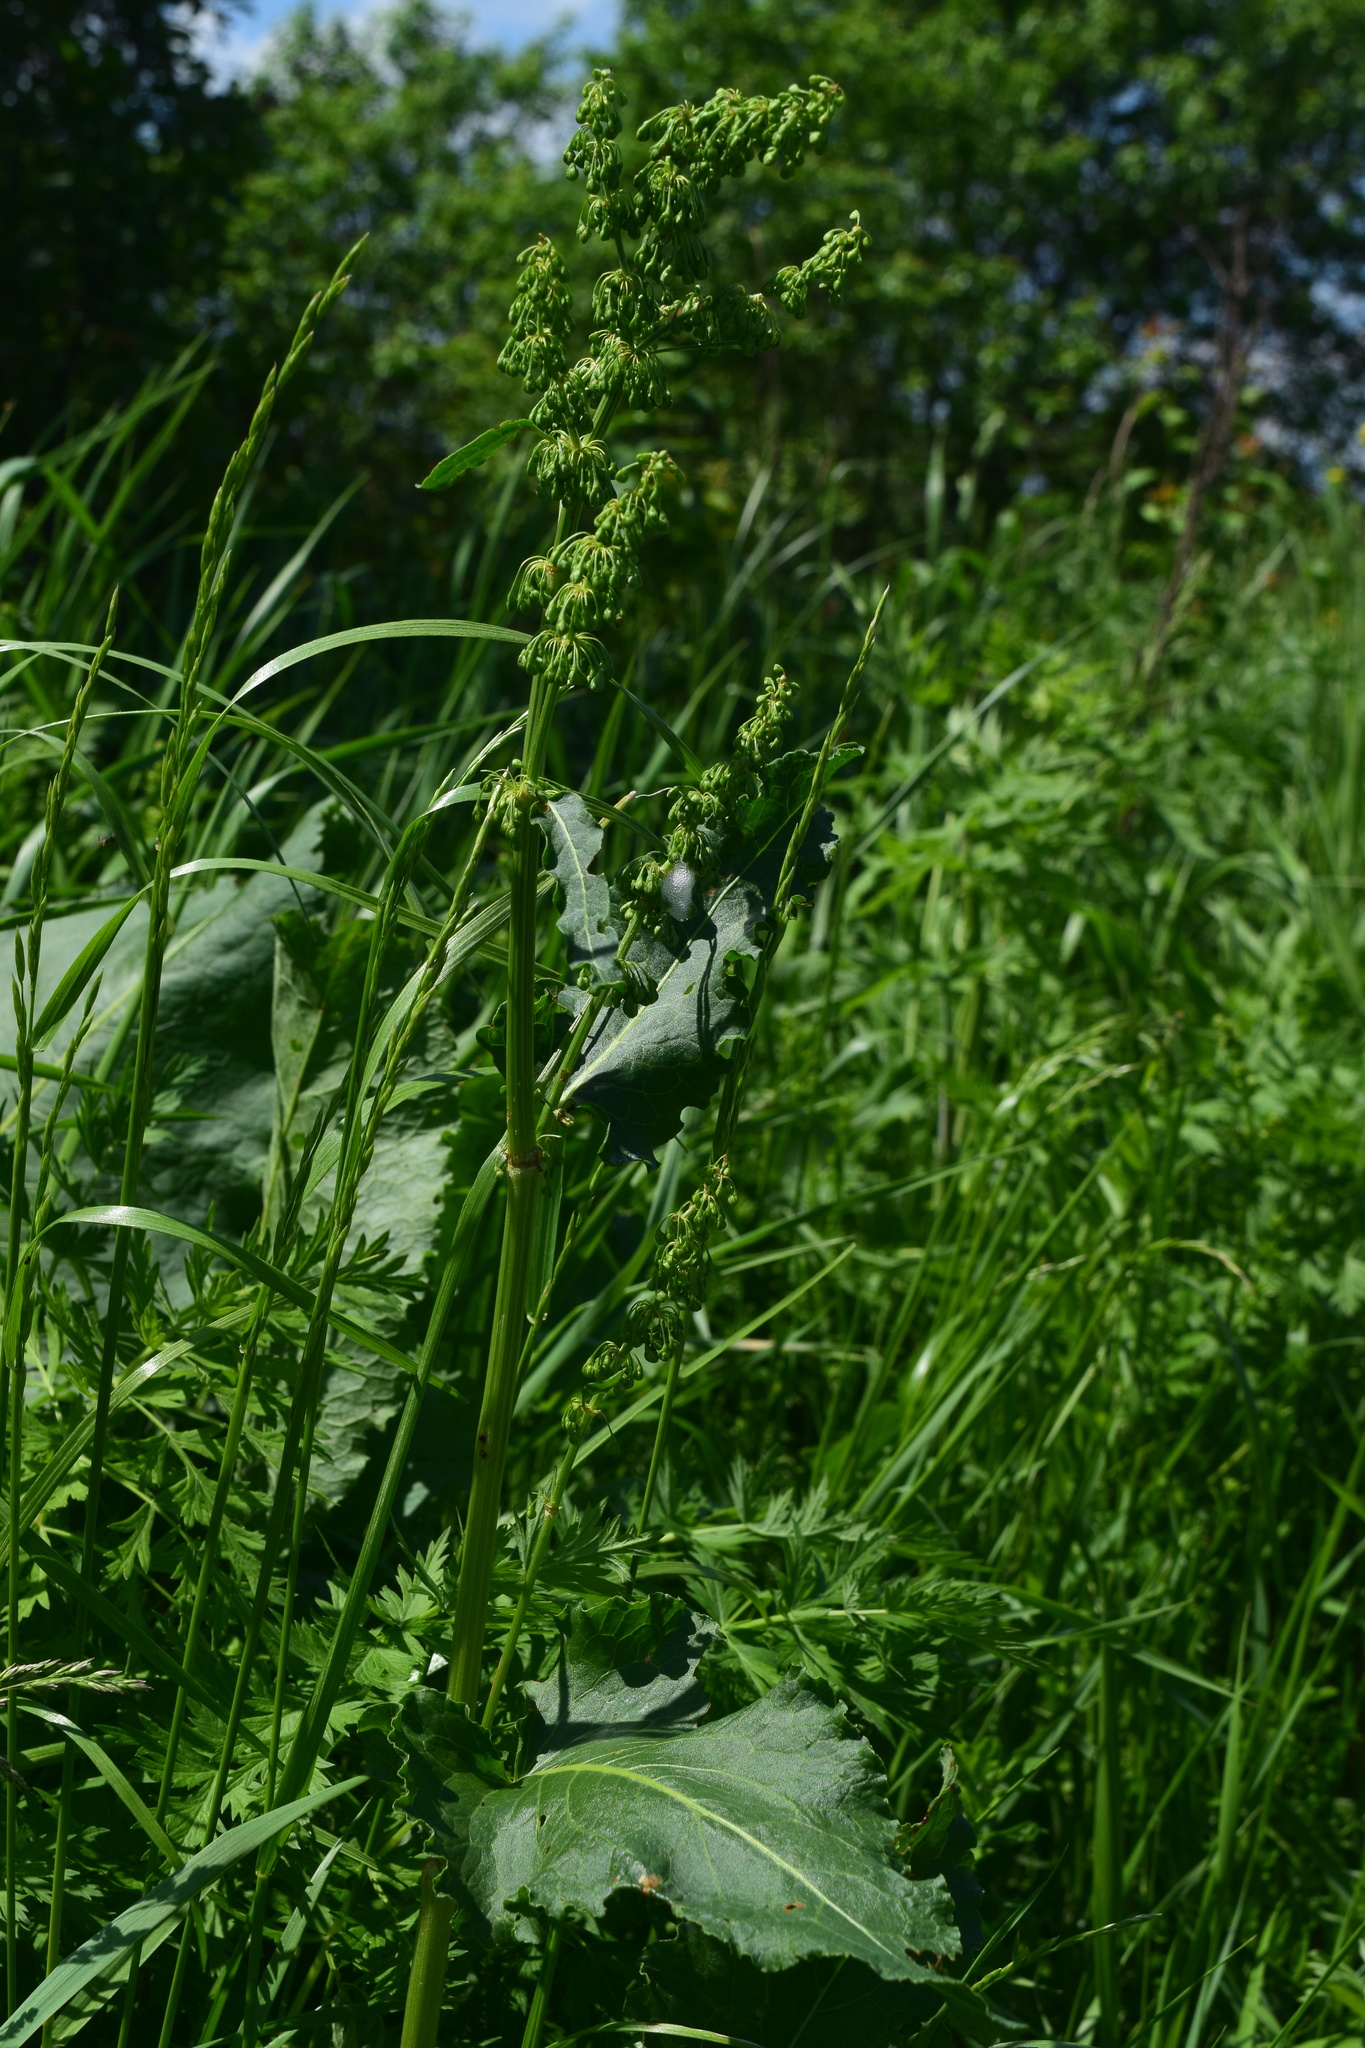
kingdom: Plantae
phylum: Tracheophyta
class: Magnoliopsida
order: Caryophyllales
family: Polygonaceae
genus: Rumex
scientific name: Rumex confertus
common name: Russian dock
